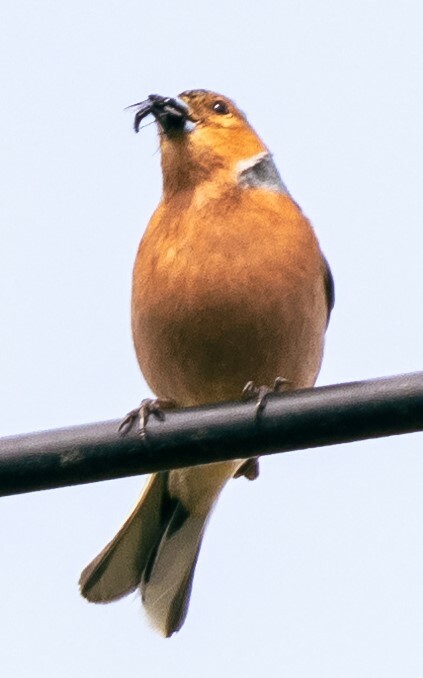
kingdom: Animalia
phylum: Chordata
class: Aves
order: Passeriformes
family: Fringillidae
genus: Fringilla
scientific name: Fringilla coelebs
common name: Common chaffinch
